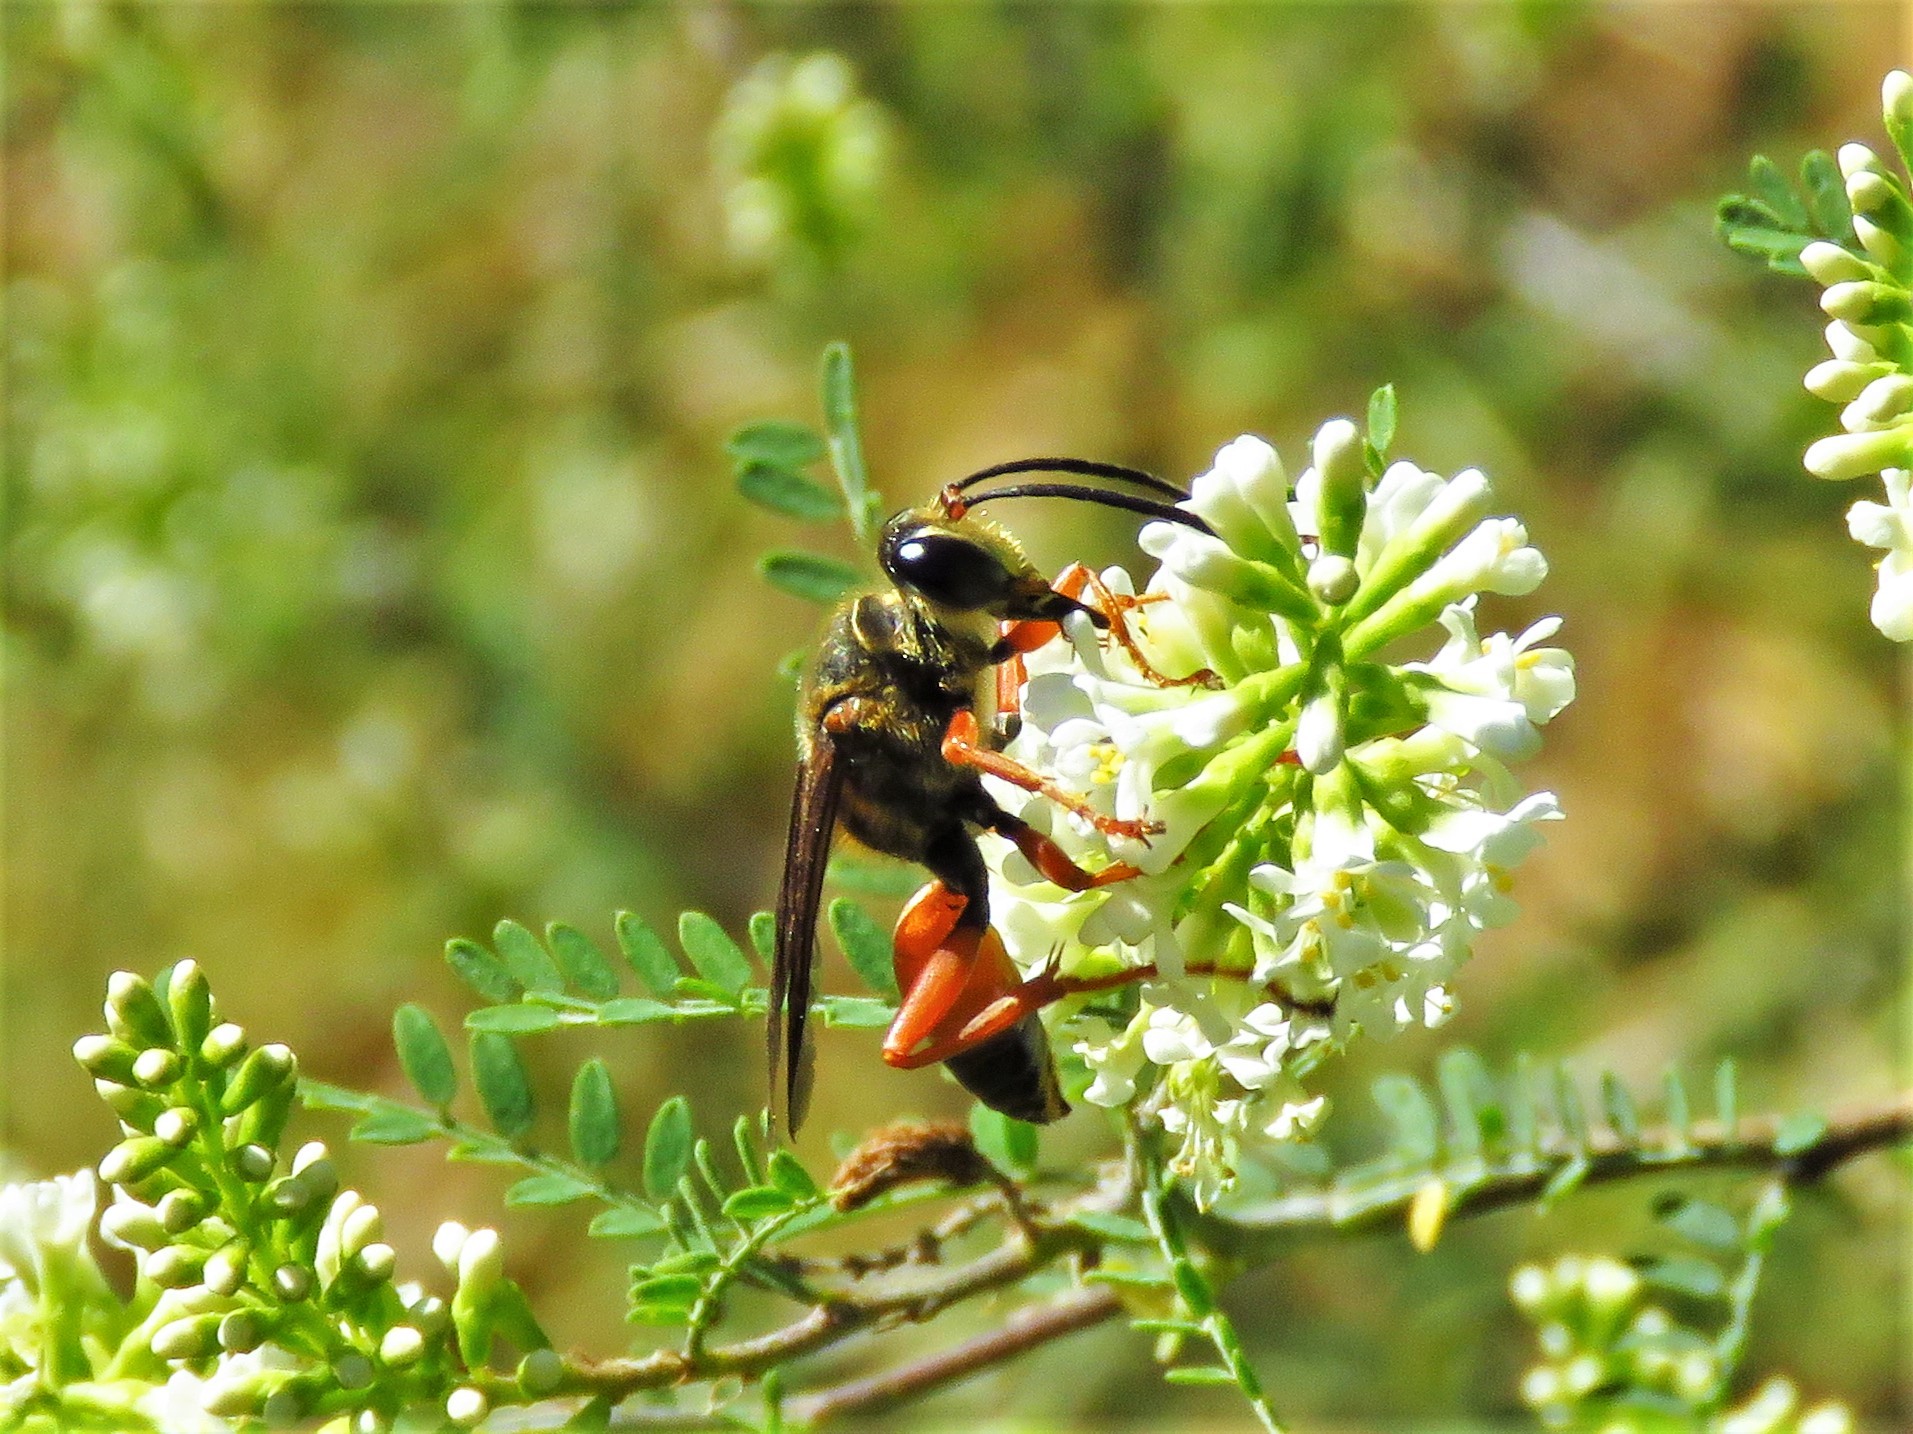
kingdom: Animalia
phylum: Arthropoda
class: Insecta
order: Hymenoptera
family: Sphecidae
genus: Sphex
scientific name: Sphex ichneumoneus
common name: Great golden digger wasp
